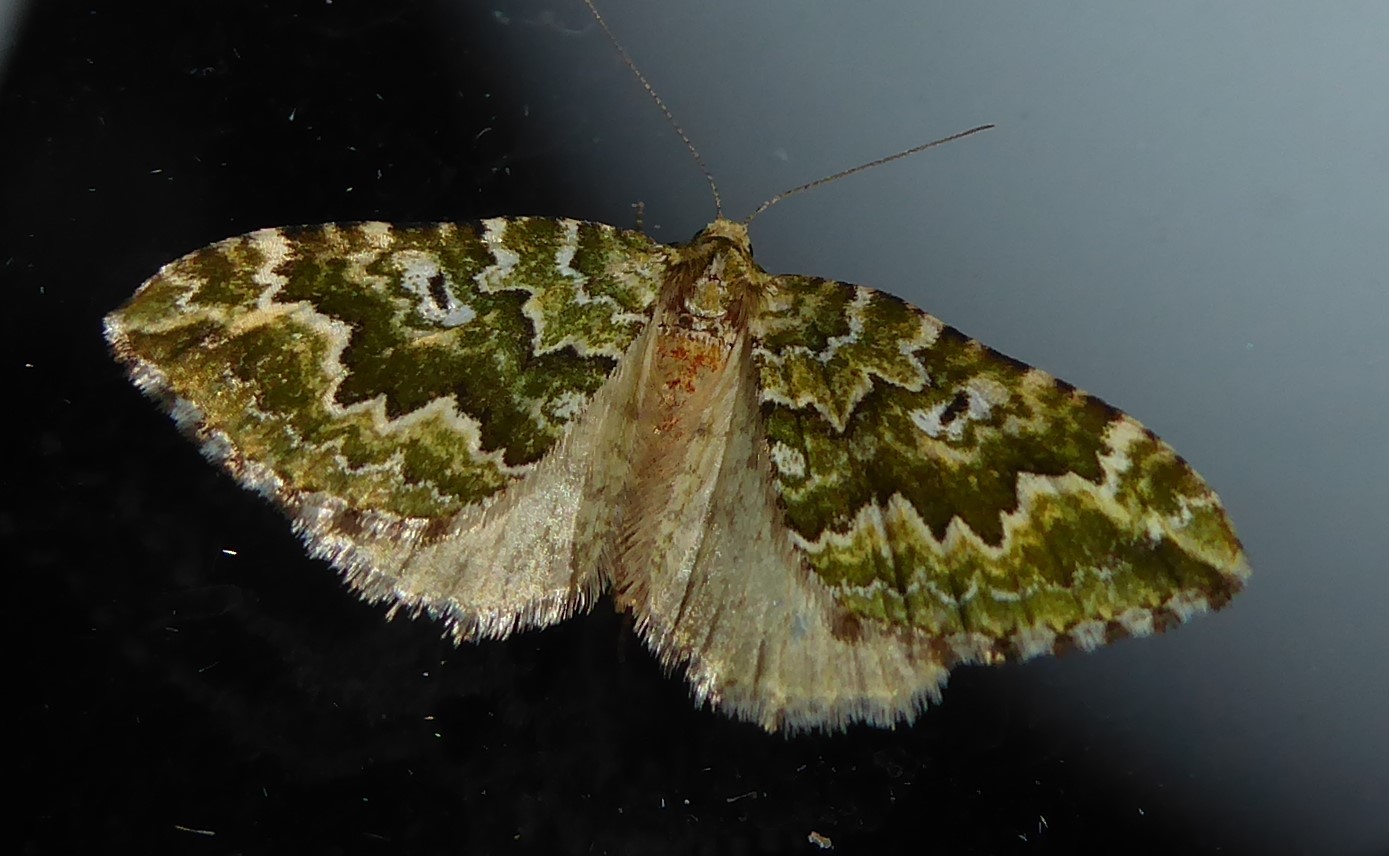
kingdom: Animalia
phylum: Arthropoda
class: Insecta
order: Lepidoptera
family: Geometridae
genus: Asaphodes
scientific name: Asaphodes beata
